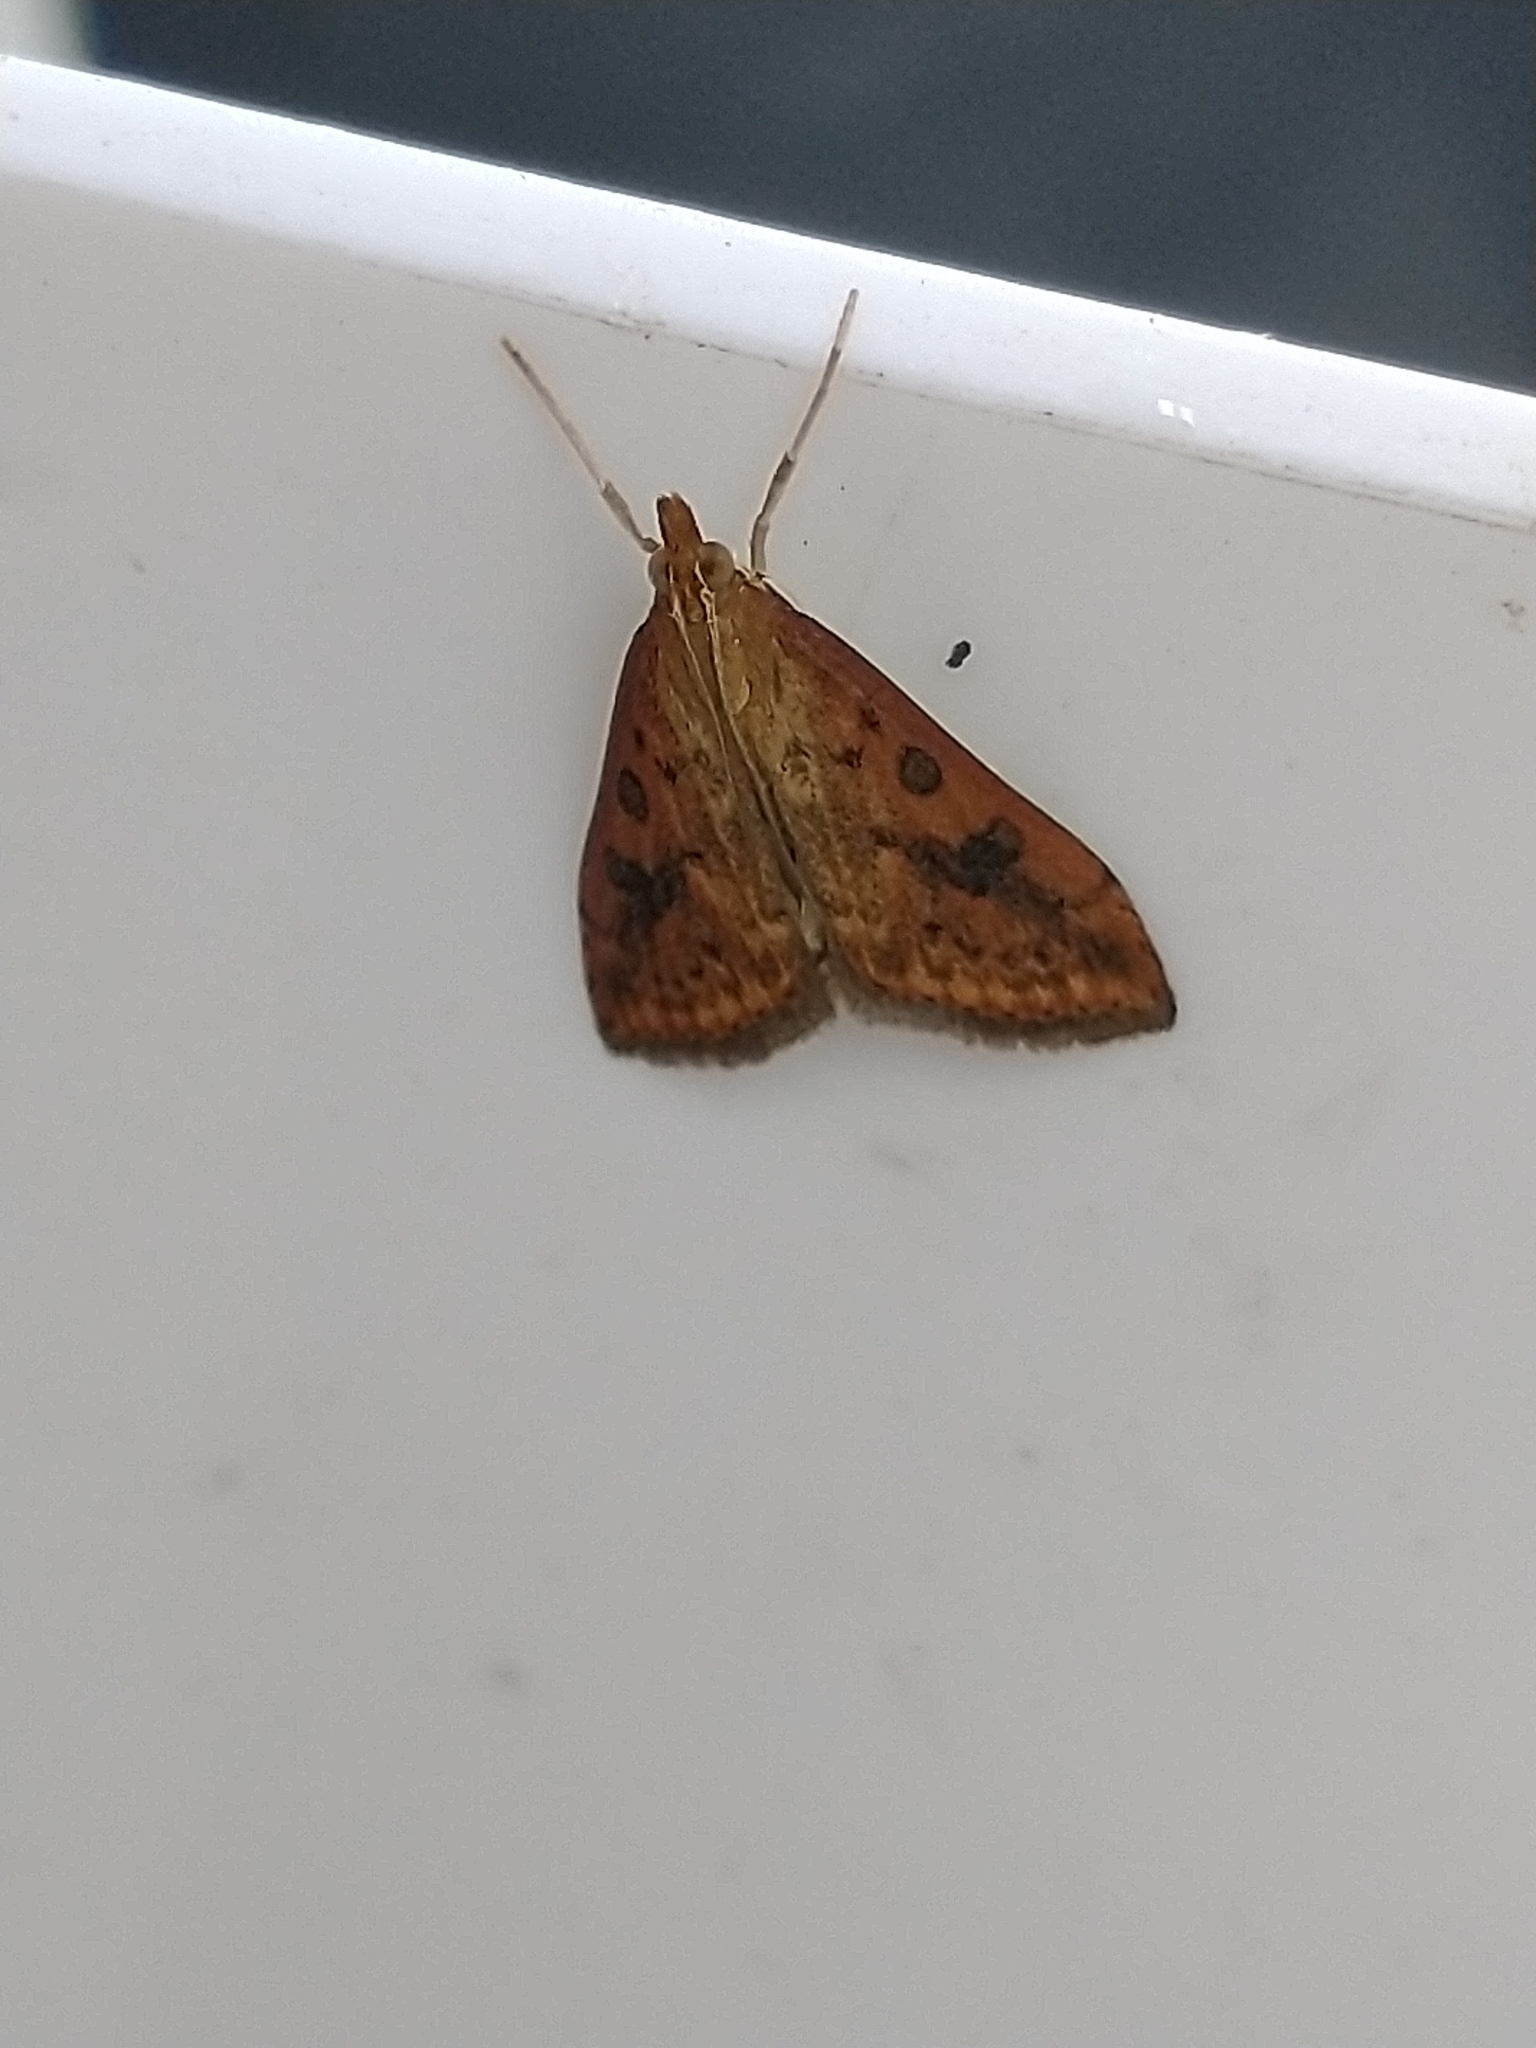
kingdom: Animalia
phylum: Arthropoda
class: Insecta
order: Lepidoptera
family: Crambidae
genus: Udea
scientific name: Udea ferrugalis
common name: Rusty dot
